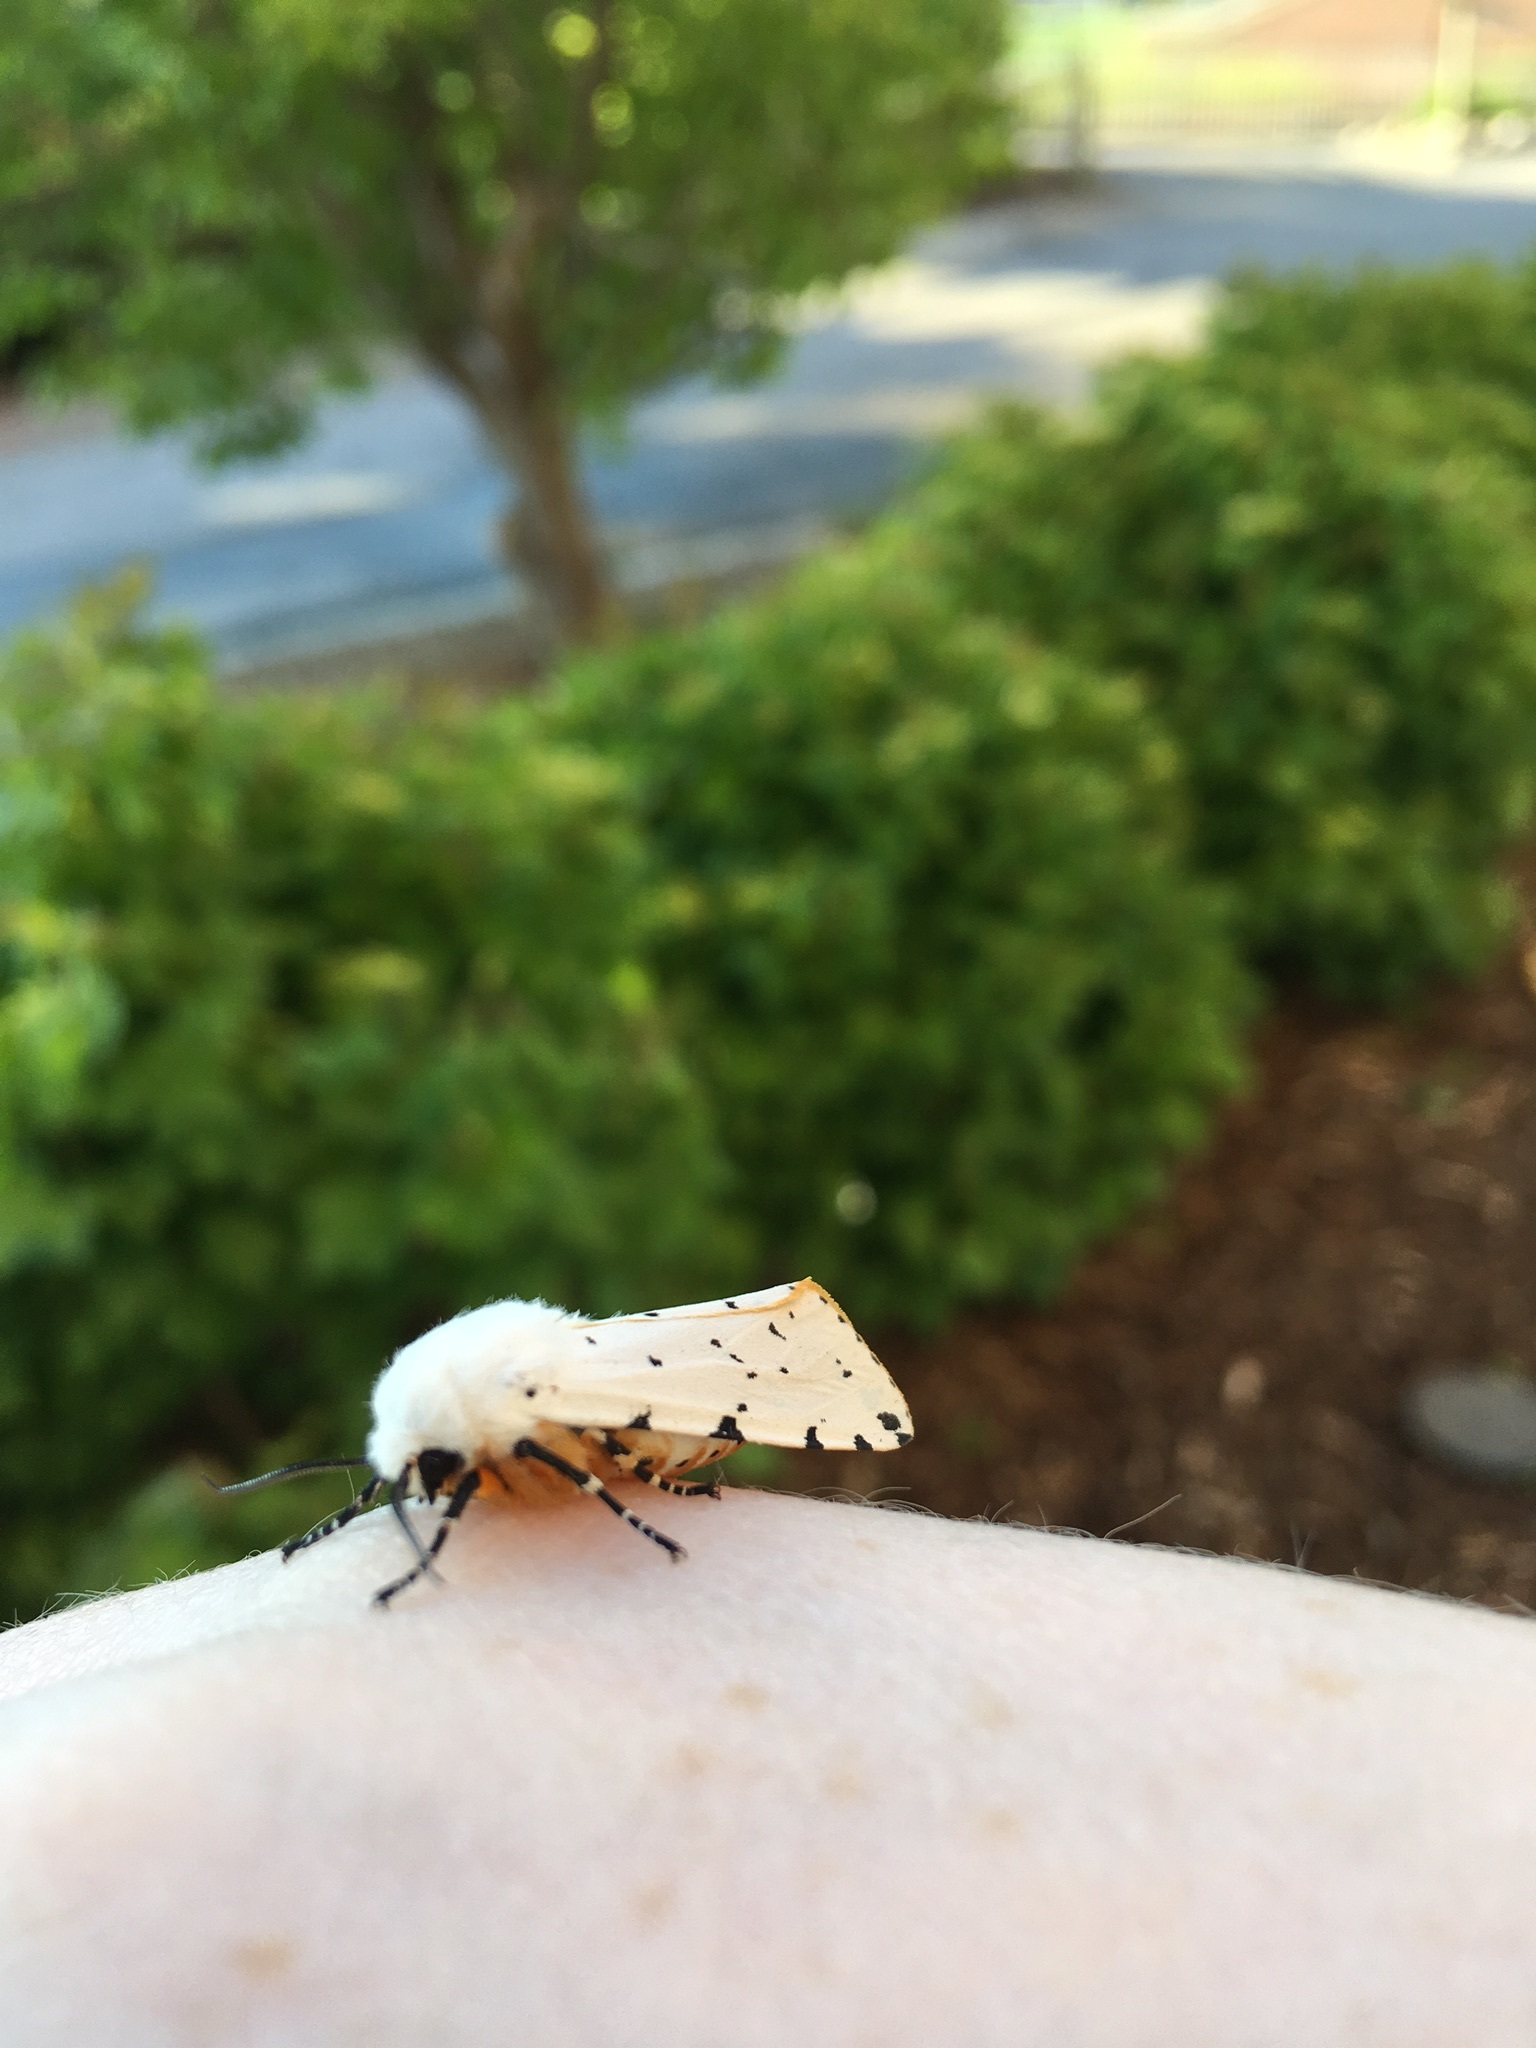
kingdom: Animalia
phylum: Arthropoda
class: Insecta
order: Lepidoptera
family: Erebidae
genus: Estigmene
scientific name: Estigmene acrea
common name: Salt marsh moth
